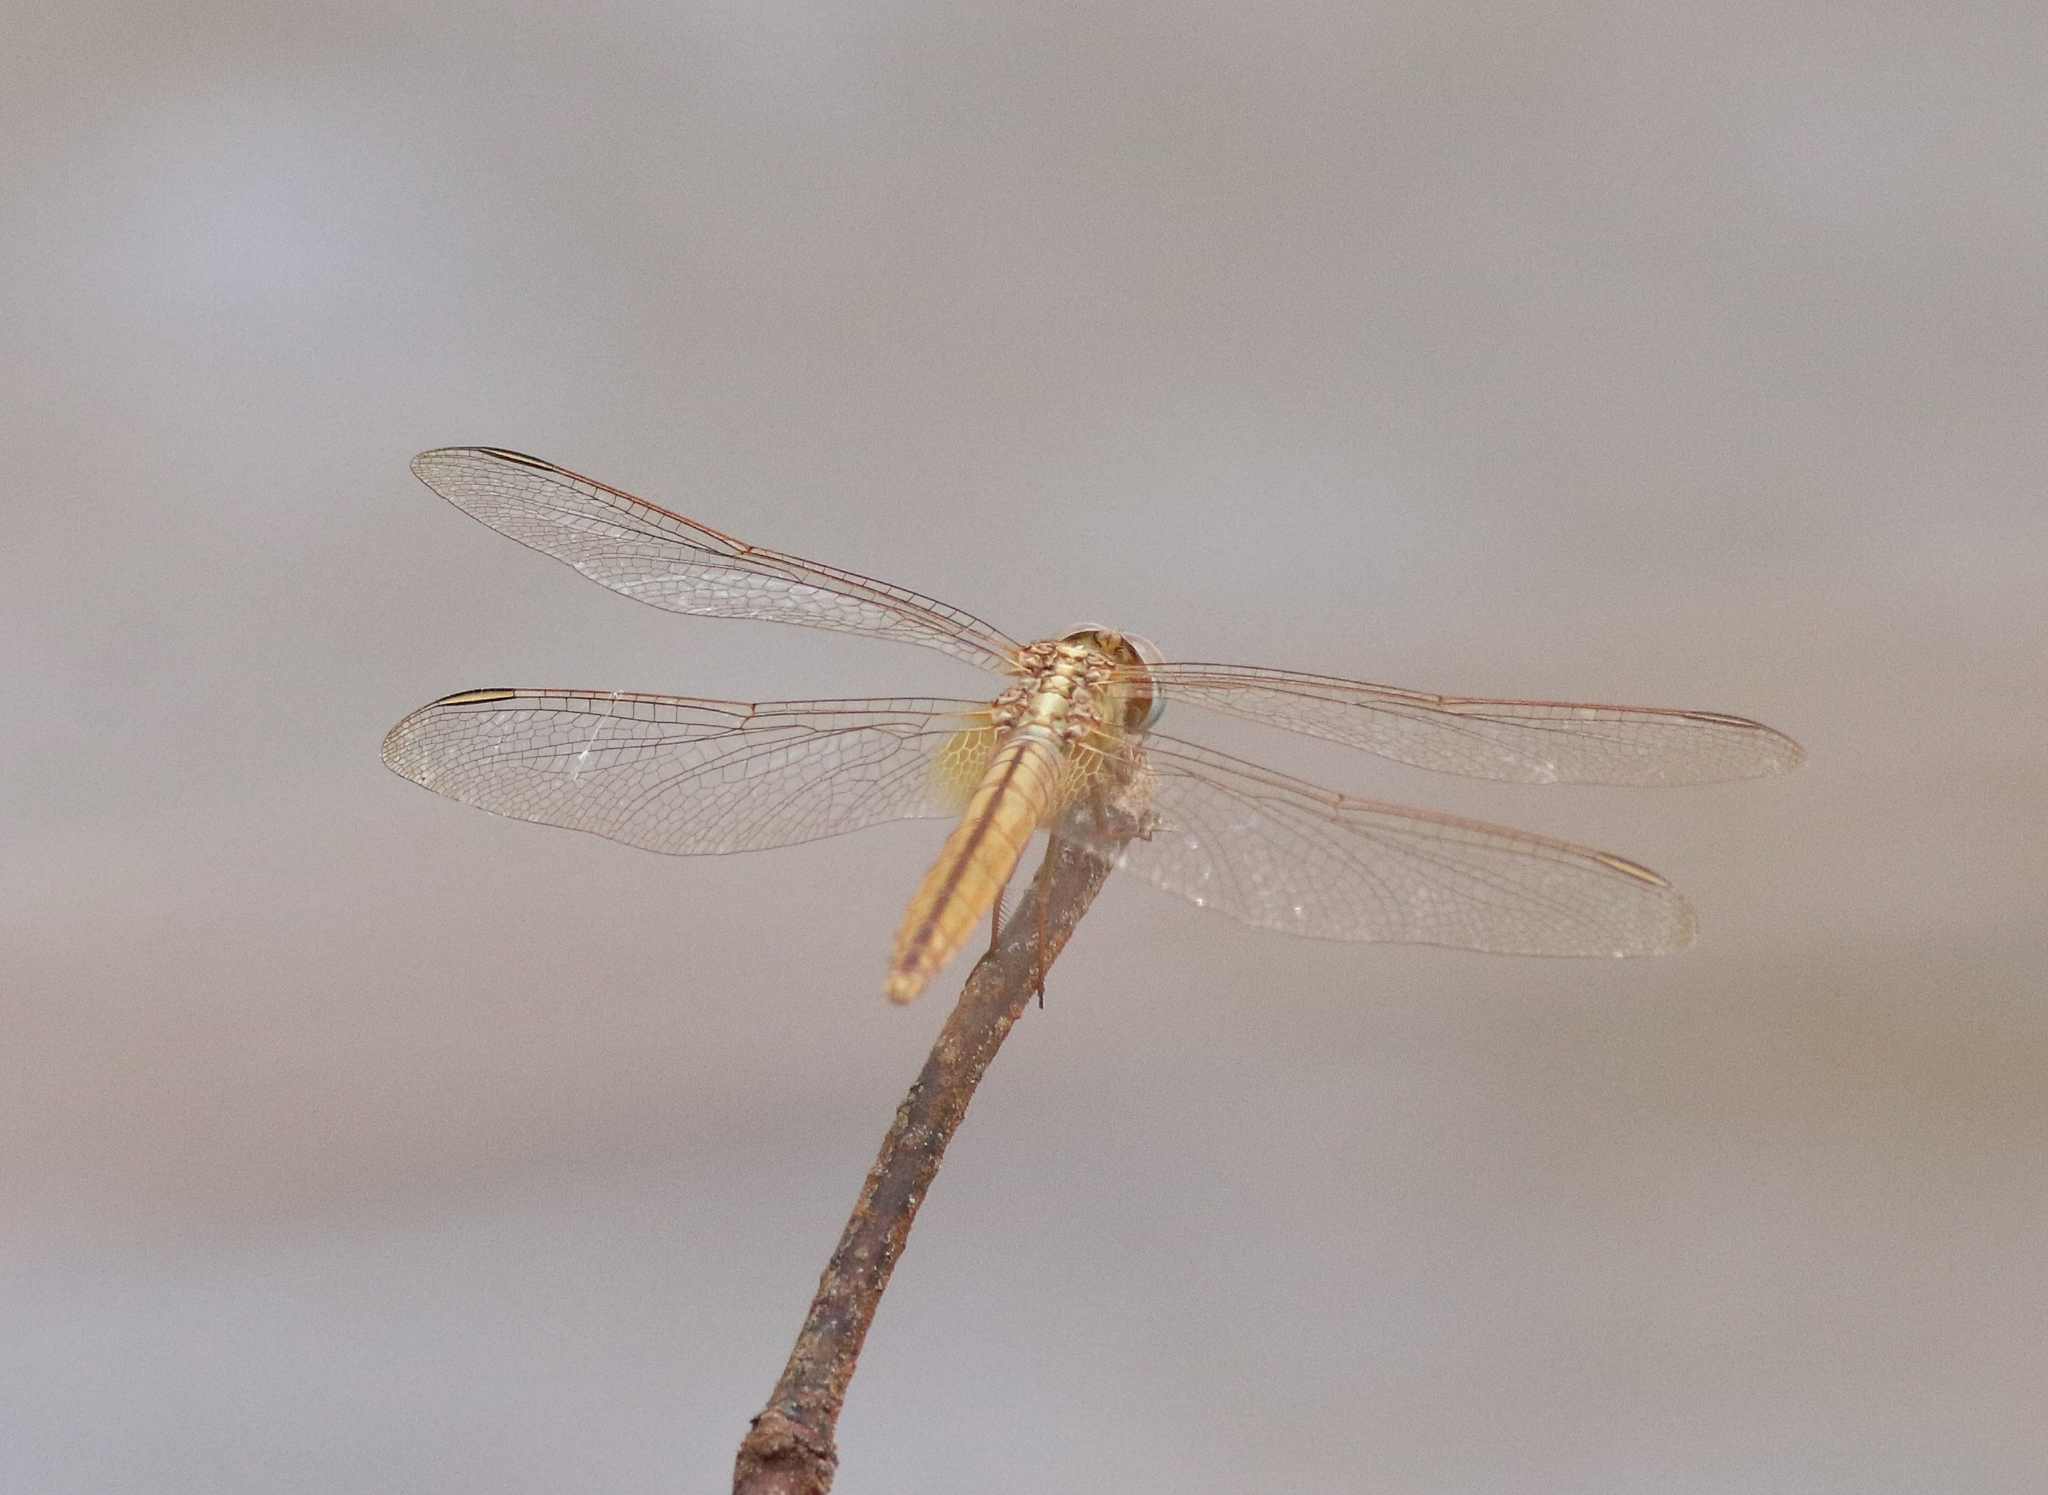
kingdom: Animalia
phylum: Arthropoda
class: Insecta
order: Odonata
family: Libellulidae
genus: Crocothemis
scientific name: Crocothemis servilia
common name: Scarlet skimmer
